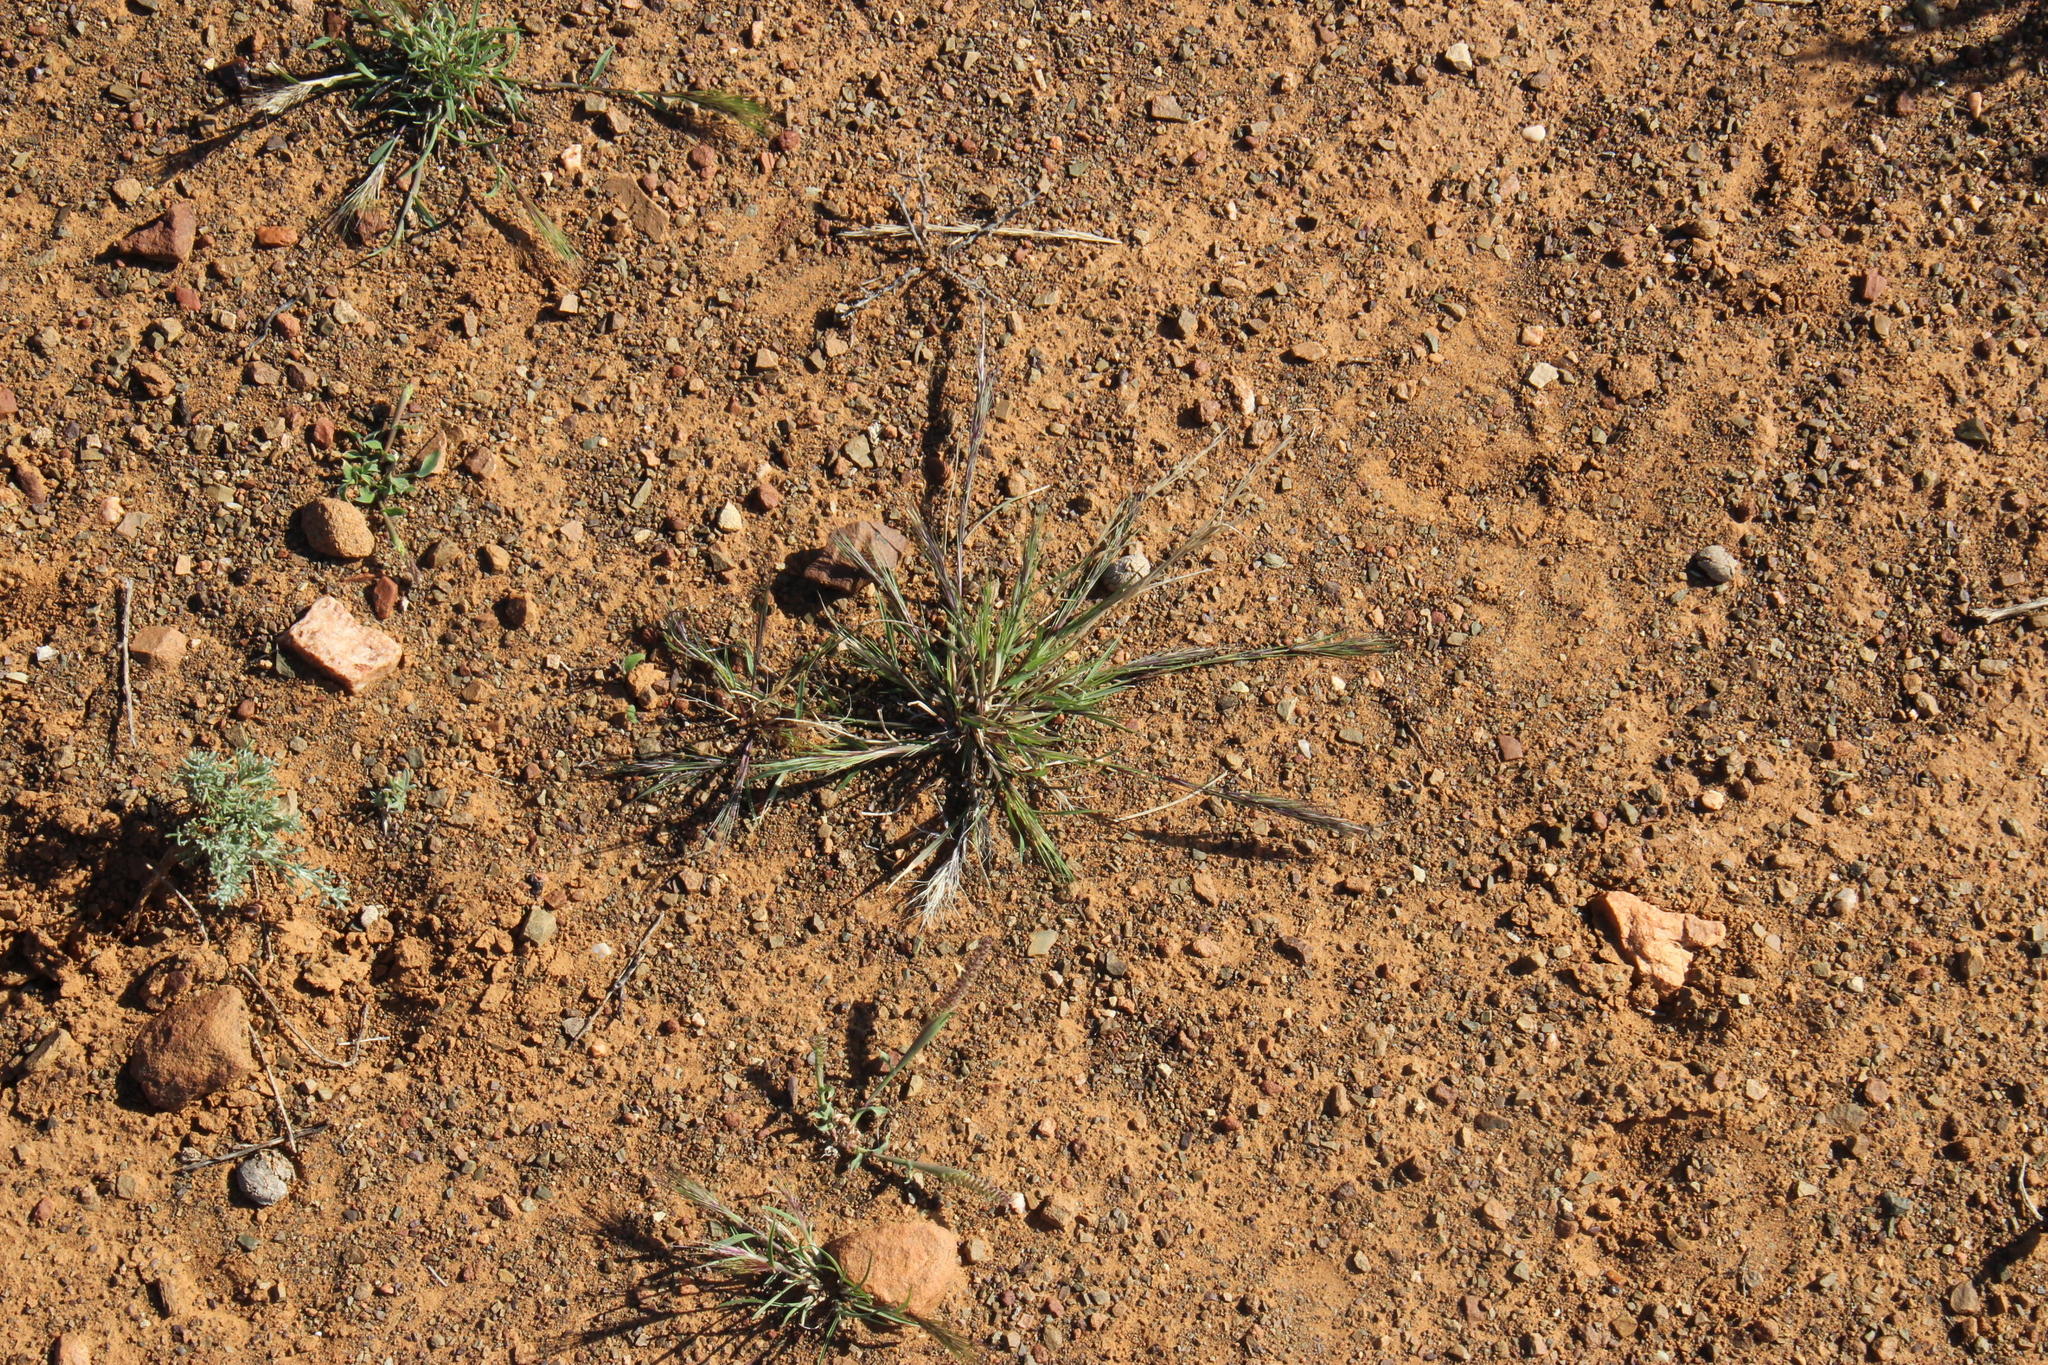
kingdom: Plantae
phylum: Tracheophyta
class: Liliopsida
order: Poales
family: Poaceae
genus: Aristida
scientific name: Aristida adscensionis
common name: Sixweeks threeawn
